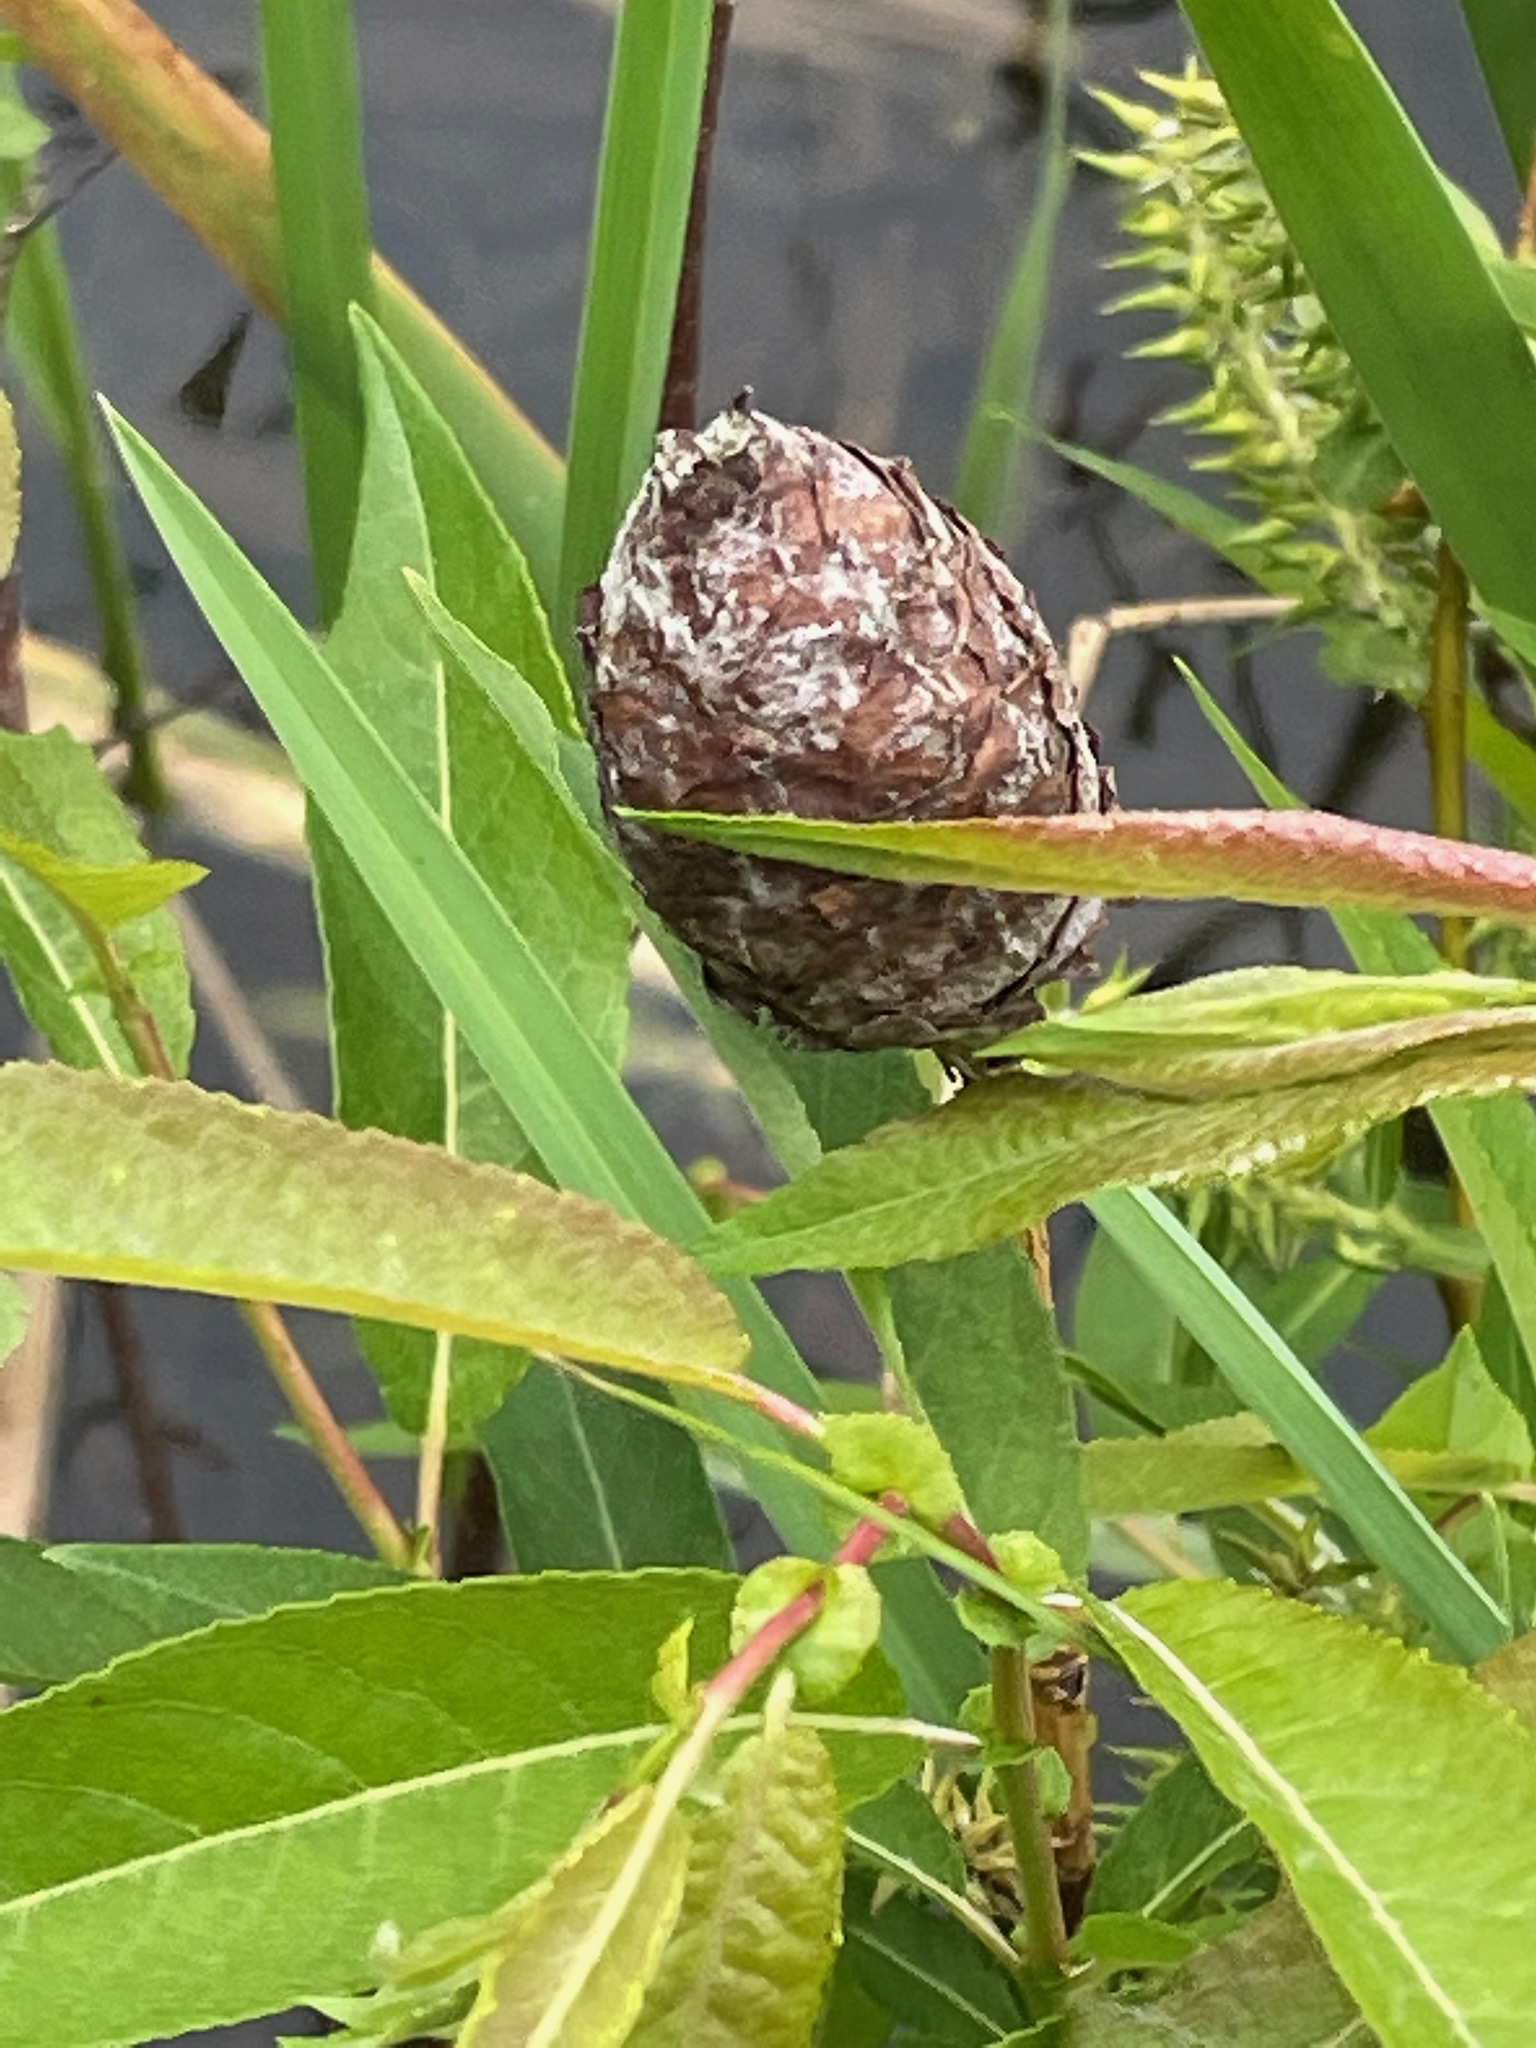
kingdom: Plantae
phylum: Tracheophyta
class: Magnoliopsida
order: Malpighiales
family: Salicaceae
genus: Salix
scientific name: Salix eriocephala
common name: Heart-leaved willow
